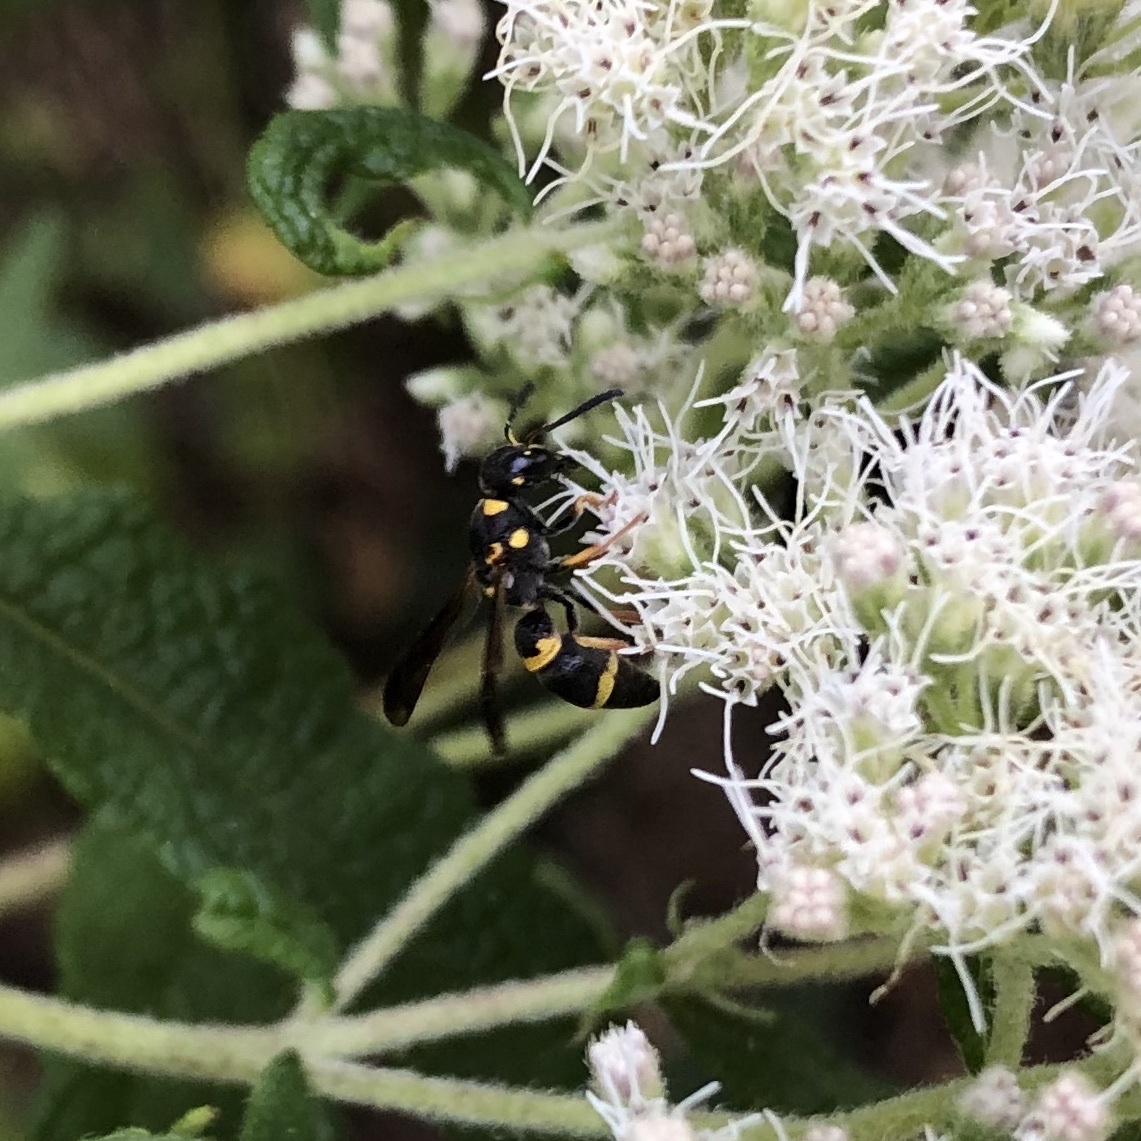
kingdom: Animalia
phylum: Arthropoda
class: Insecta
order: Hymenoptera
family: Eumenidae
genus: Parancistrocerus
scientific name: Parancistrocerus perennis
